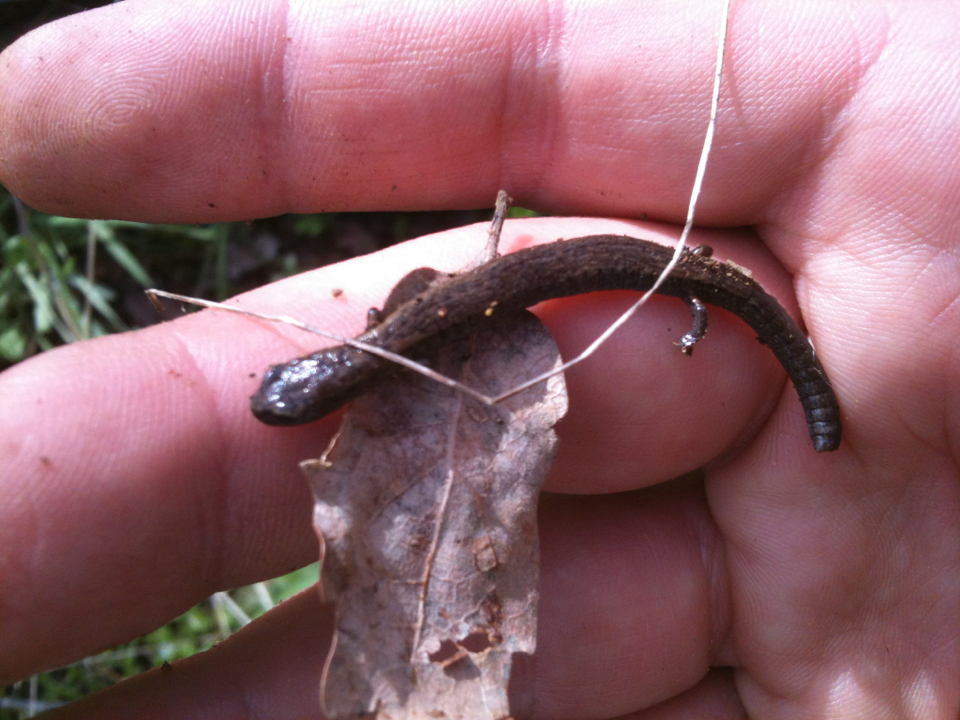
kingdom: Animalia
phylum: Chordata
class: Amphibia
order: Caudata
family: Plethodontidae
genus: Batrachoseps
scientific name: Batrachoseps attenuatus
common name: California slender salamander
